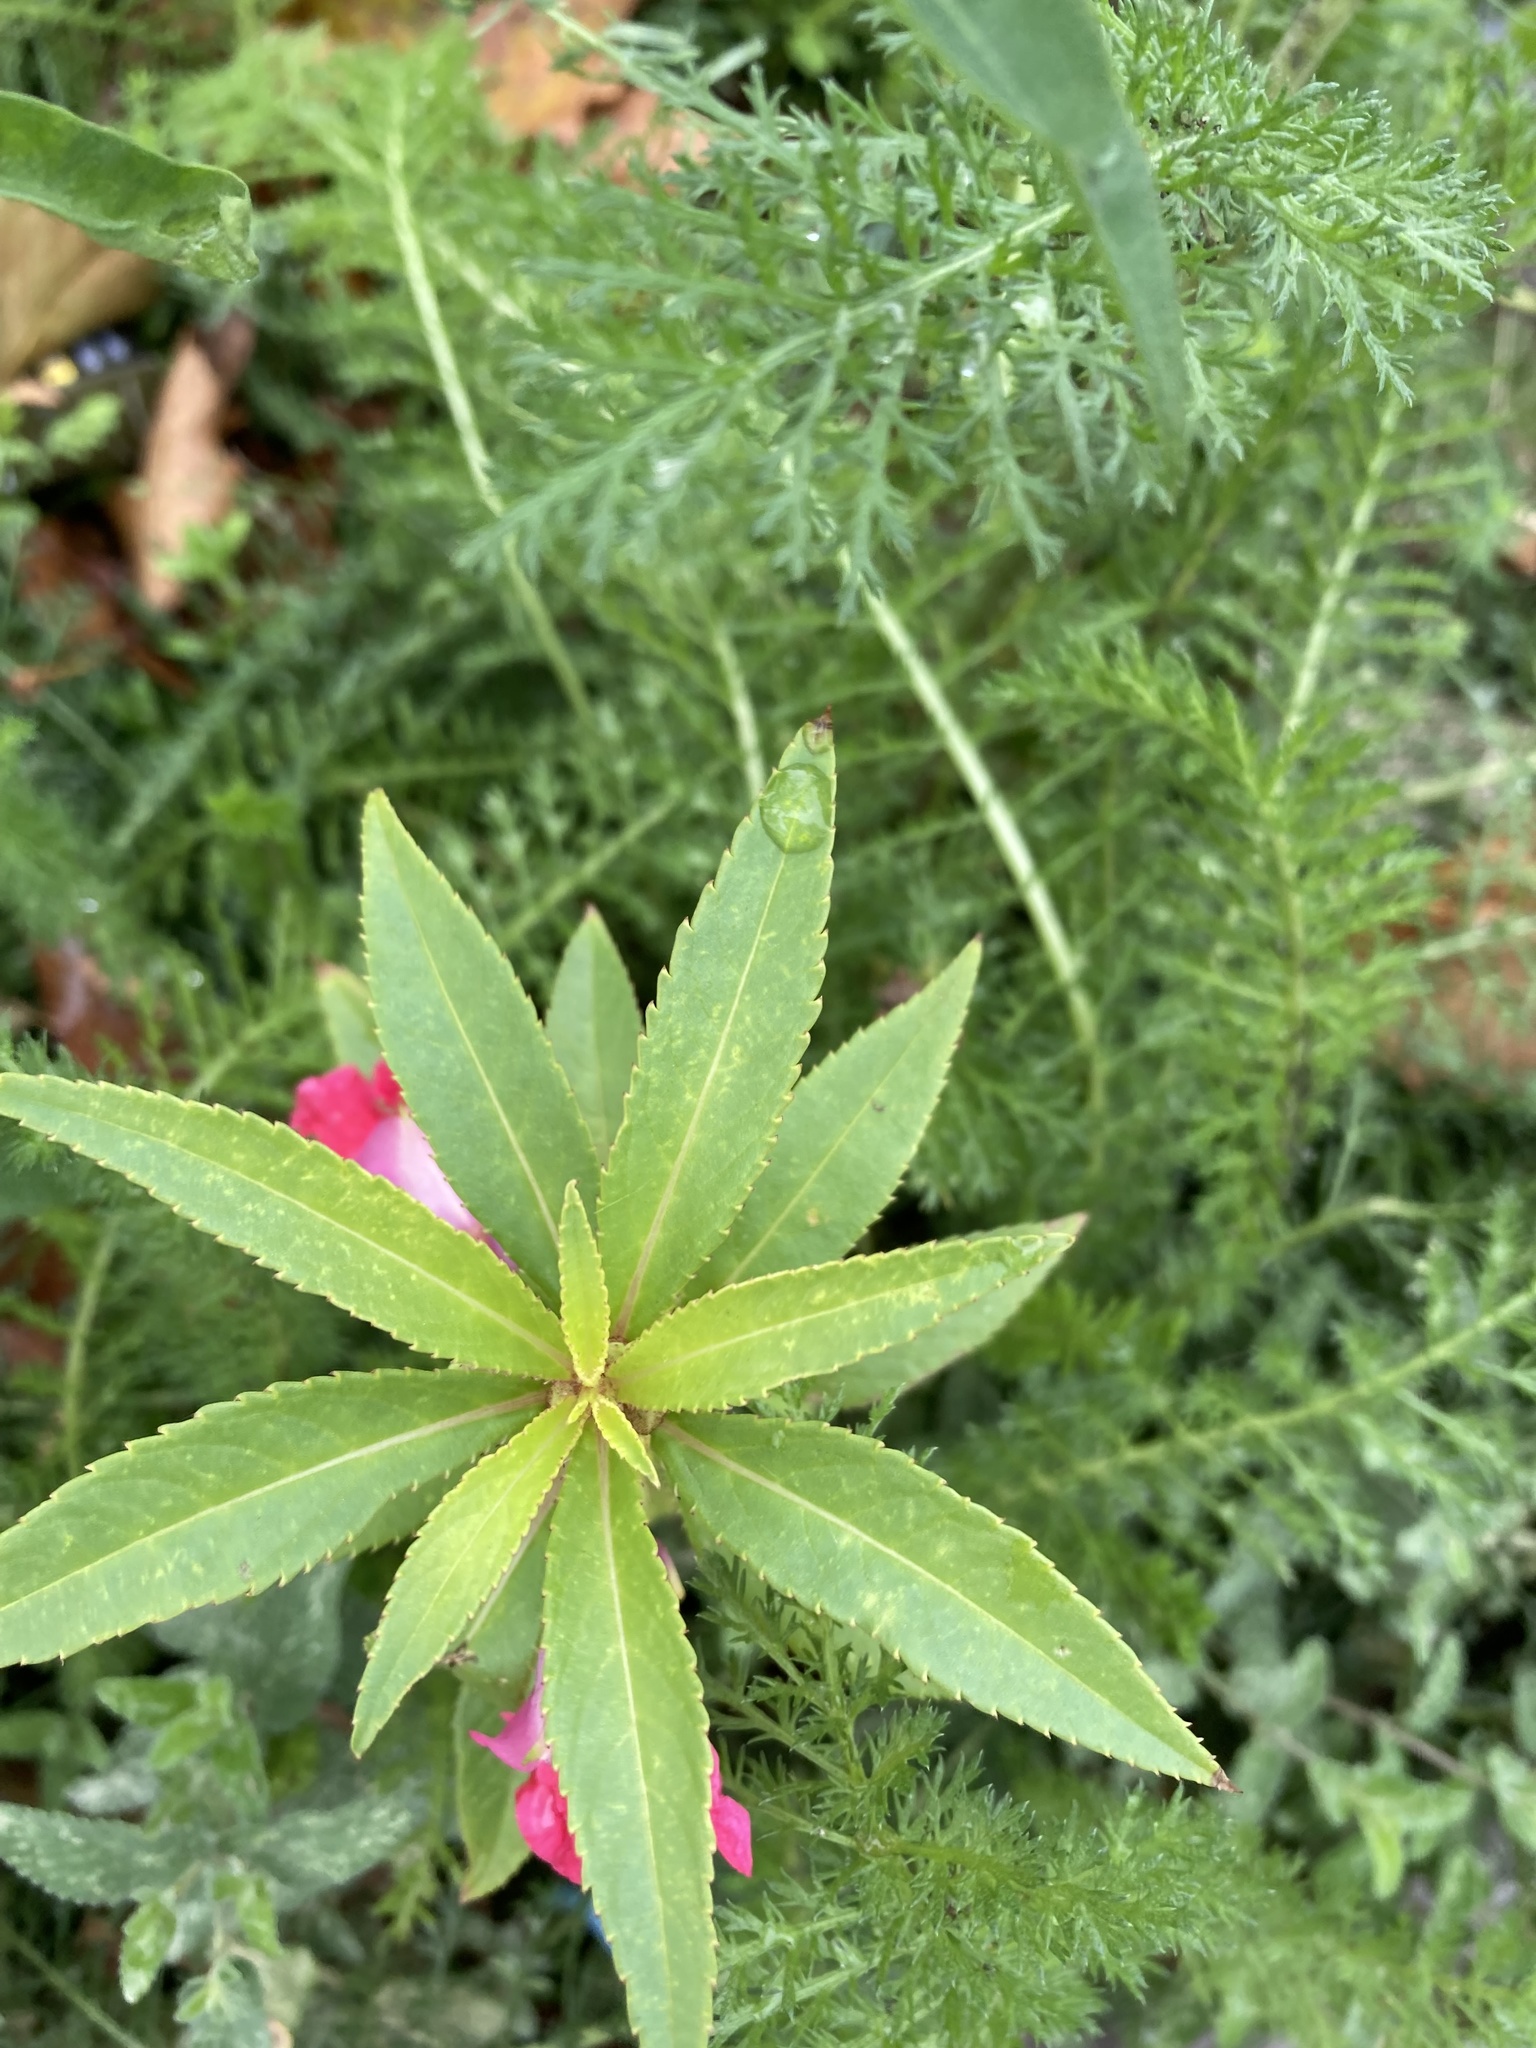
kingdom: Plantae
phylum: Tracheophyta
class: Magnoliopsida
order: Ericales
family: Balsaminaceae
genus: Impatiens
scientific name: Impatiens balsamina
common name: Balsam
